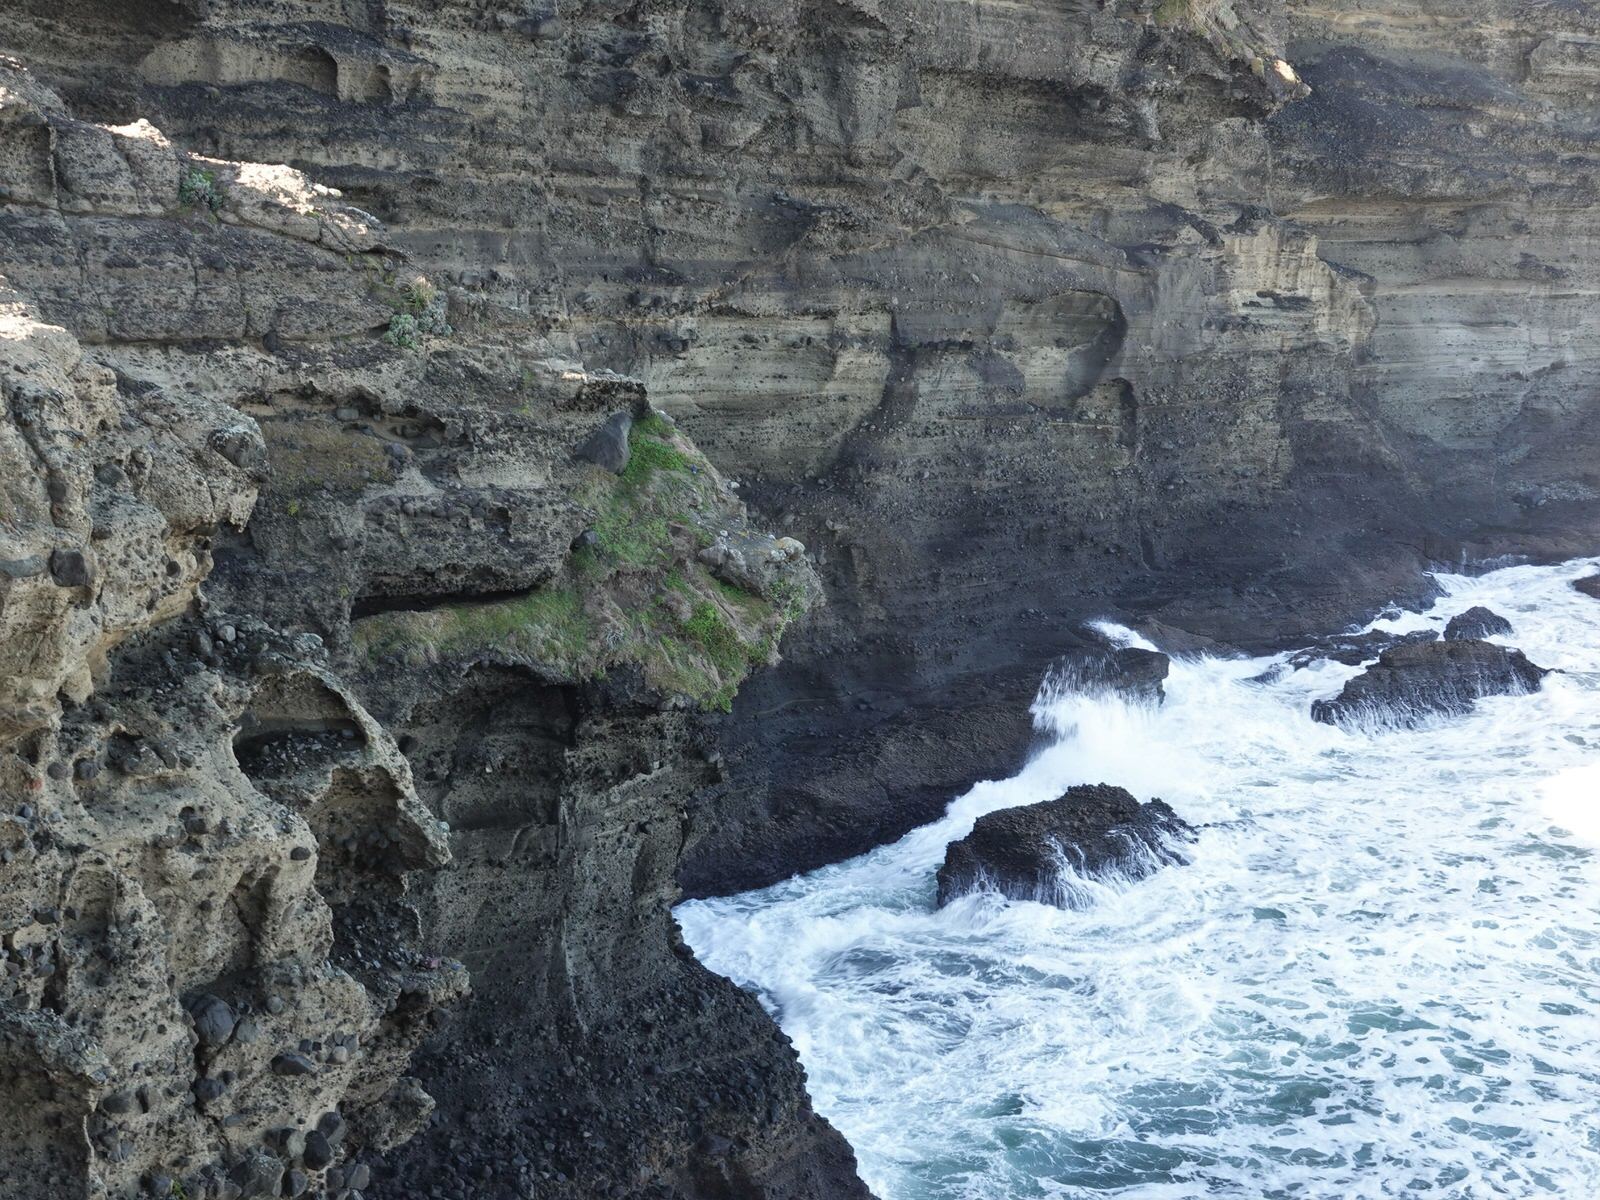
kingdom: Animalia
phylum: Chordata
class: Aves
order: Columbiformes
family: Columbidae
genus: Columba
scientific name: Columba livia
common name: Rock pigeon
